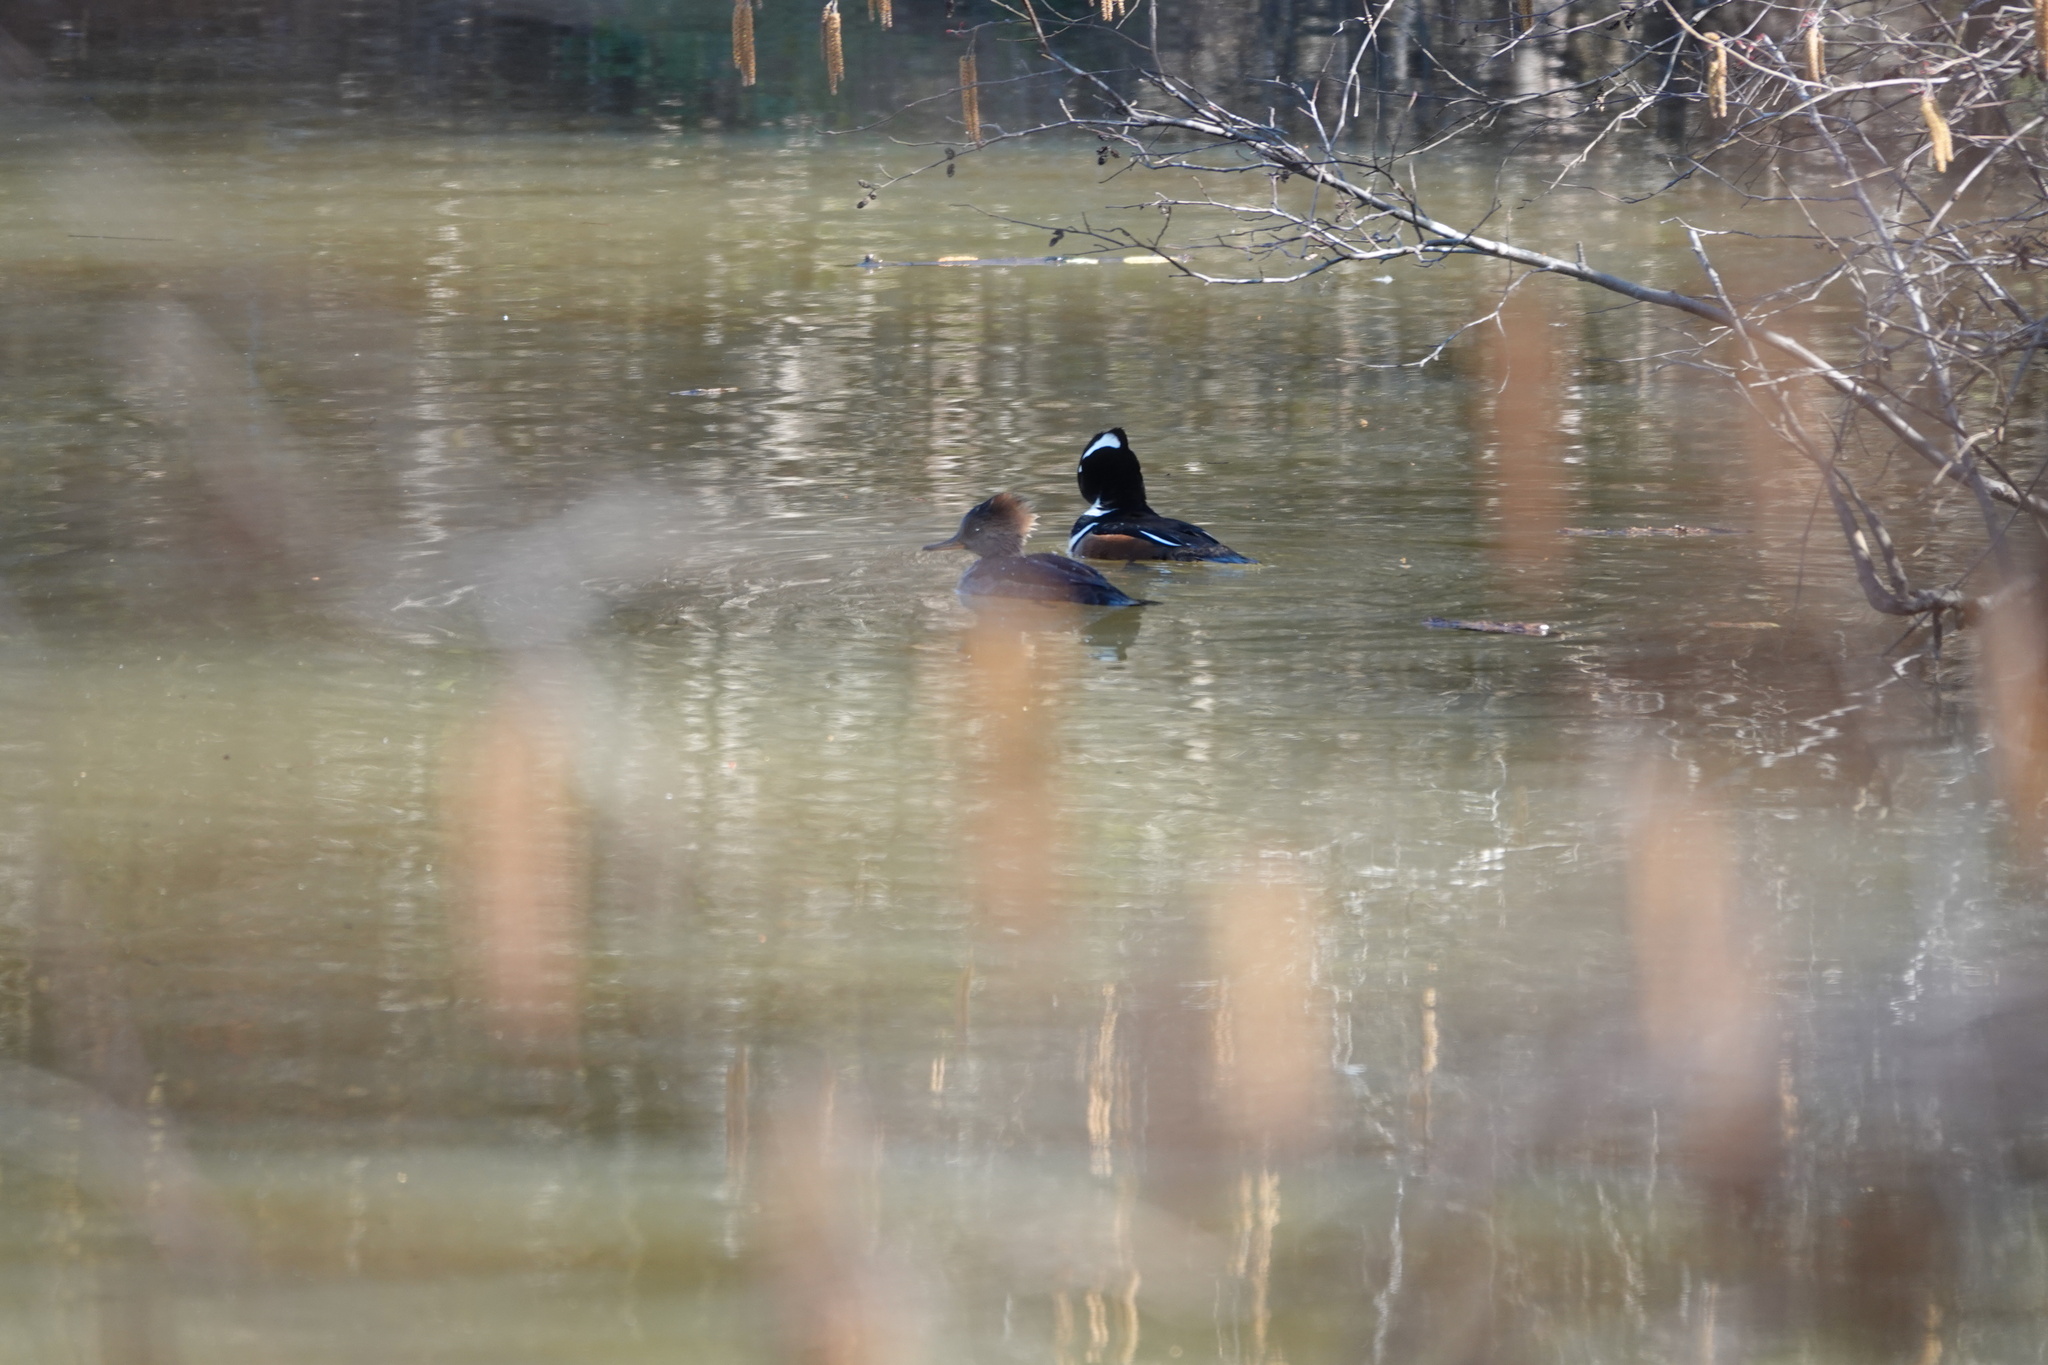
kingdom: Animalia
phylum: Chordata
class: Aves
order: Anseriformes
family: Anatidae
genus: Lophodytes
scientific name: Lophodytes cucullatus
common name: Hooded merganser
